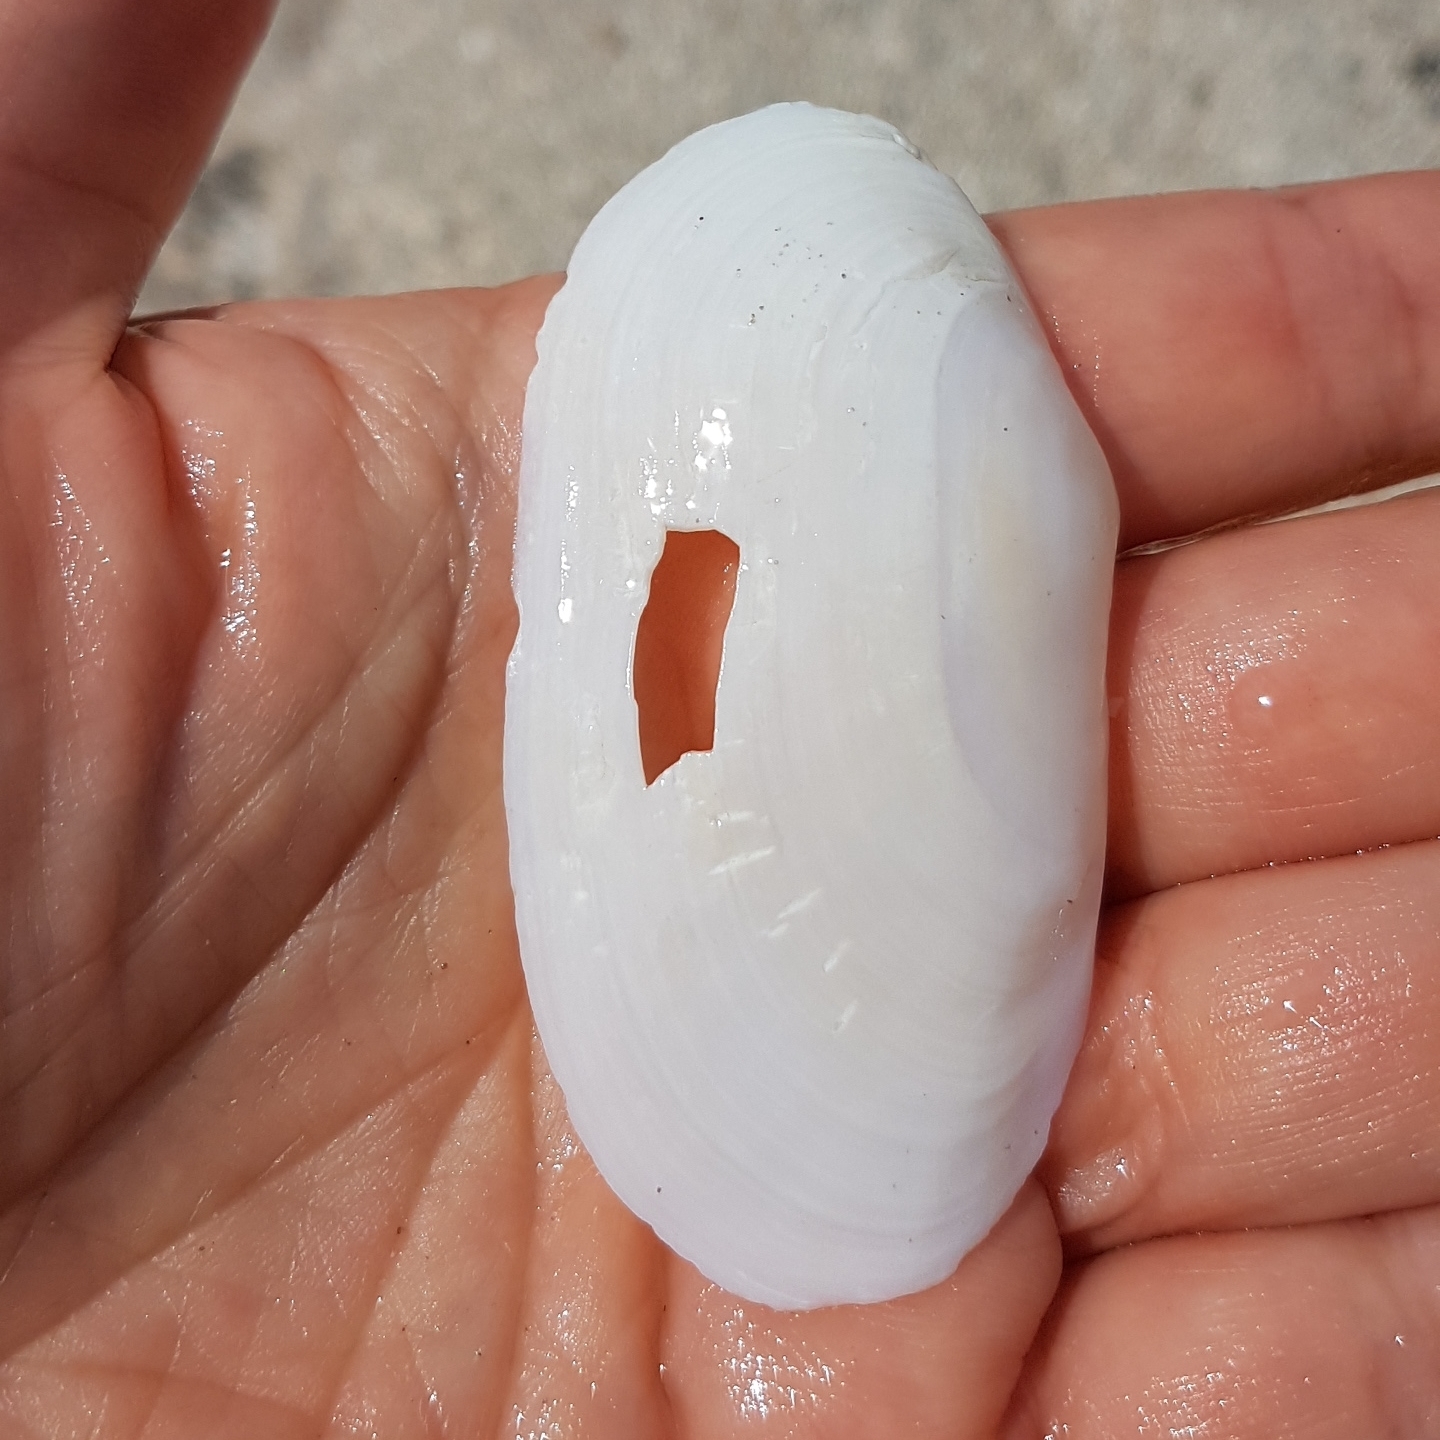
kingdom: Animalia
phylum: Mollusca
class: Bivalvia
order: Venerida
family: Mactridae
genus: Lutraria
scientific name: Lutraria lutraria
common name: Common otter shell
